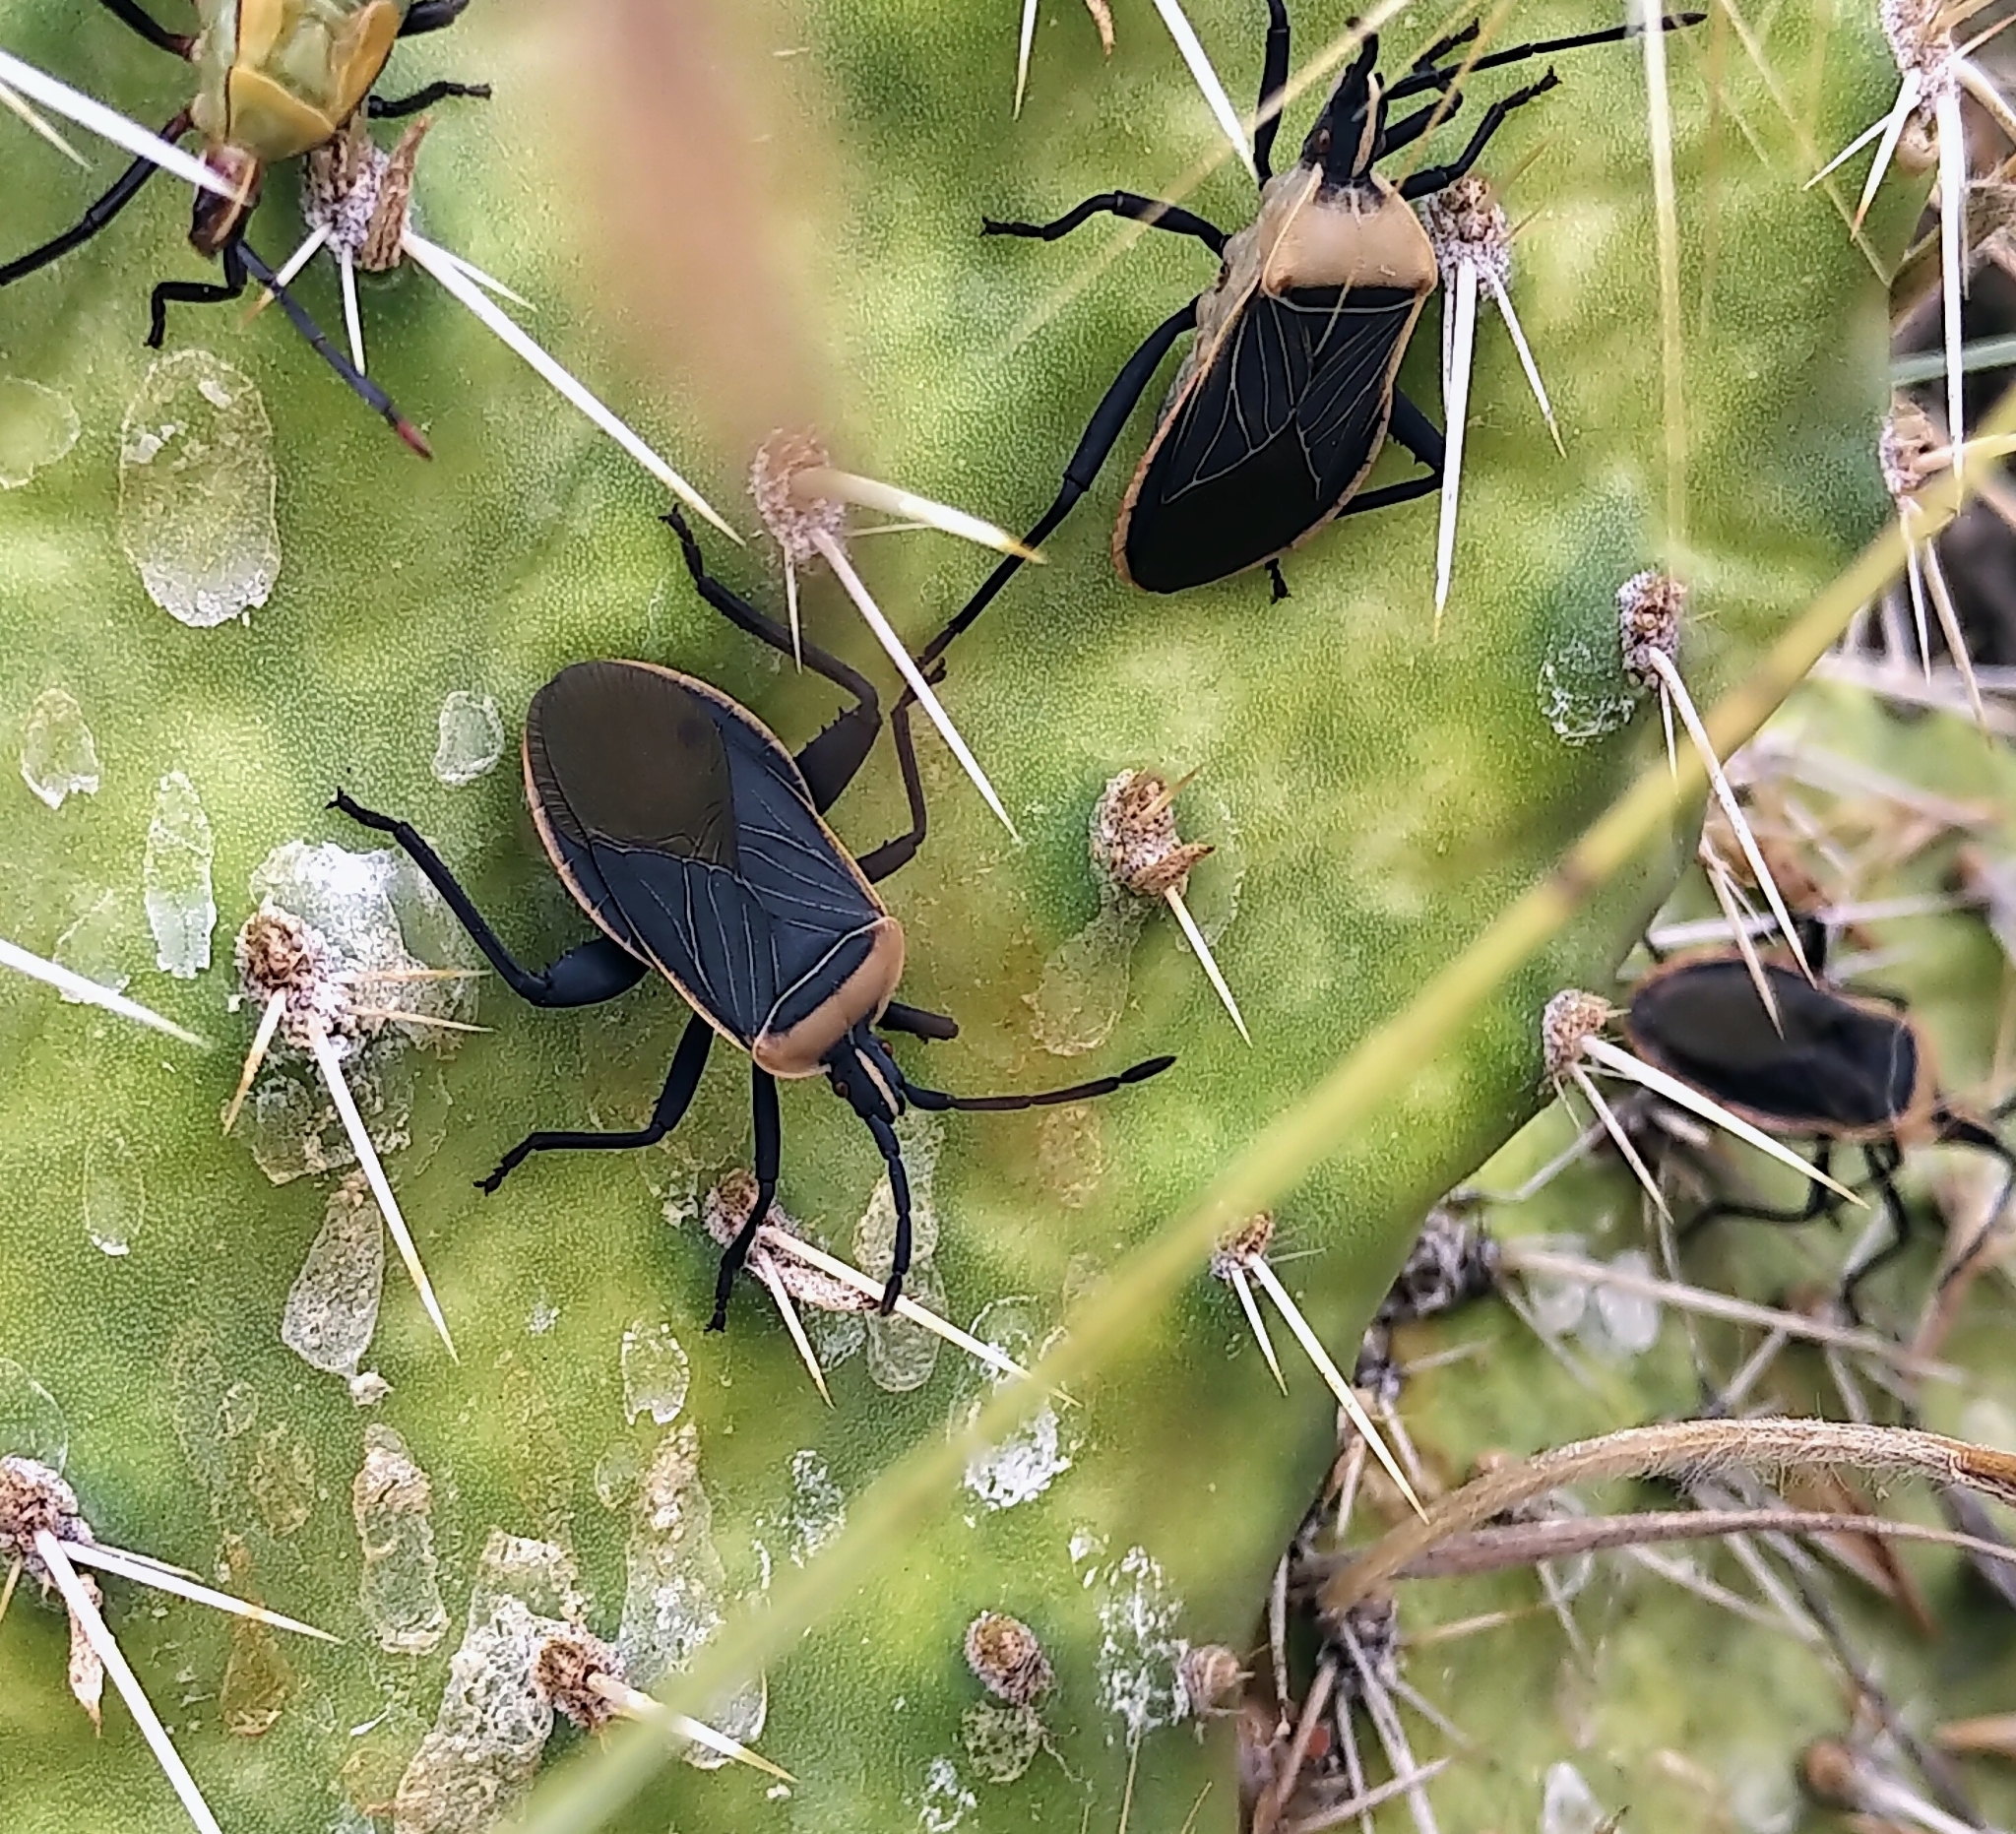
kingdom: Animalia
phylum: Arthropoda
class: Insecta
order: Hemiptera
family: Coreidae
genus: Chelinidea
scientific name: Chelinidea vittiger
